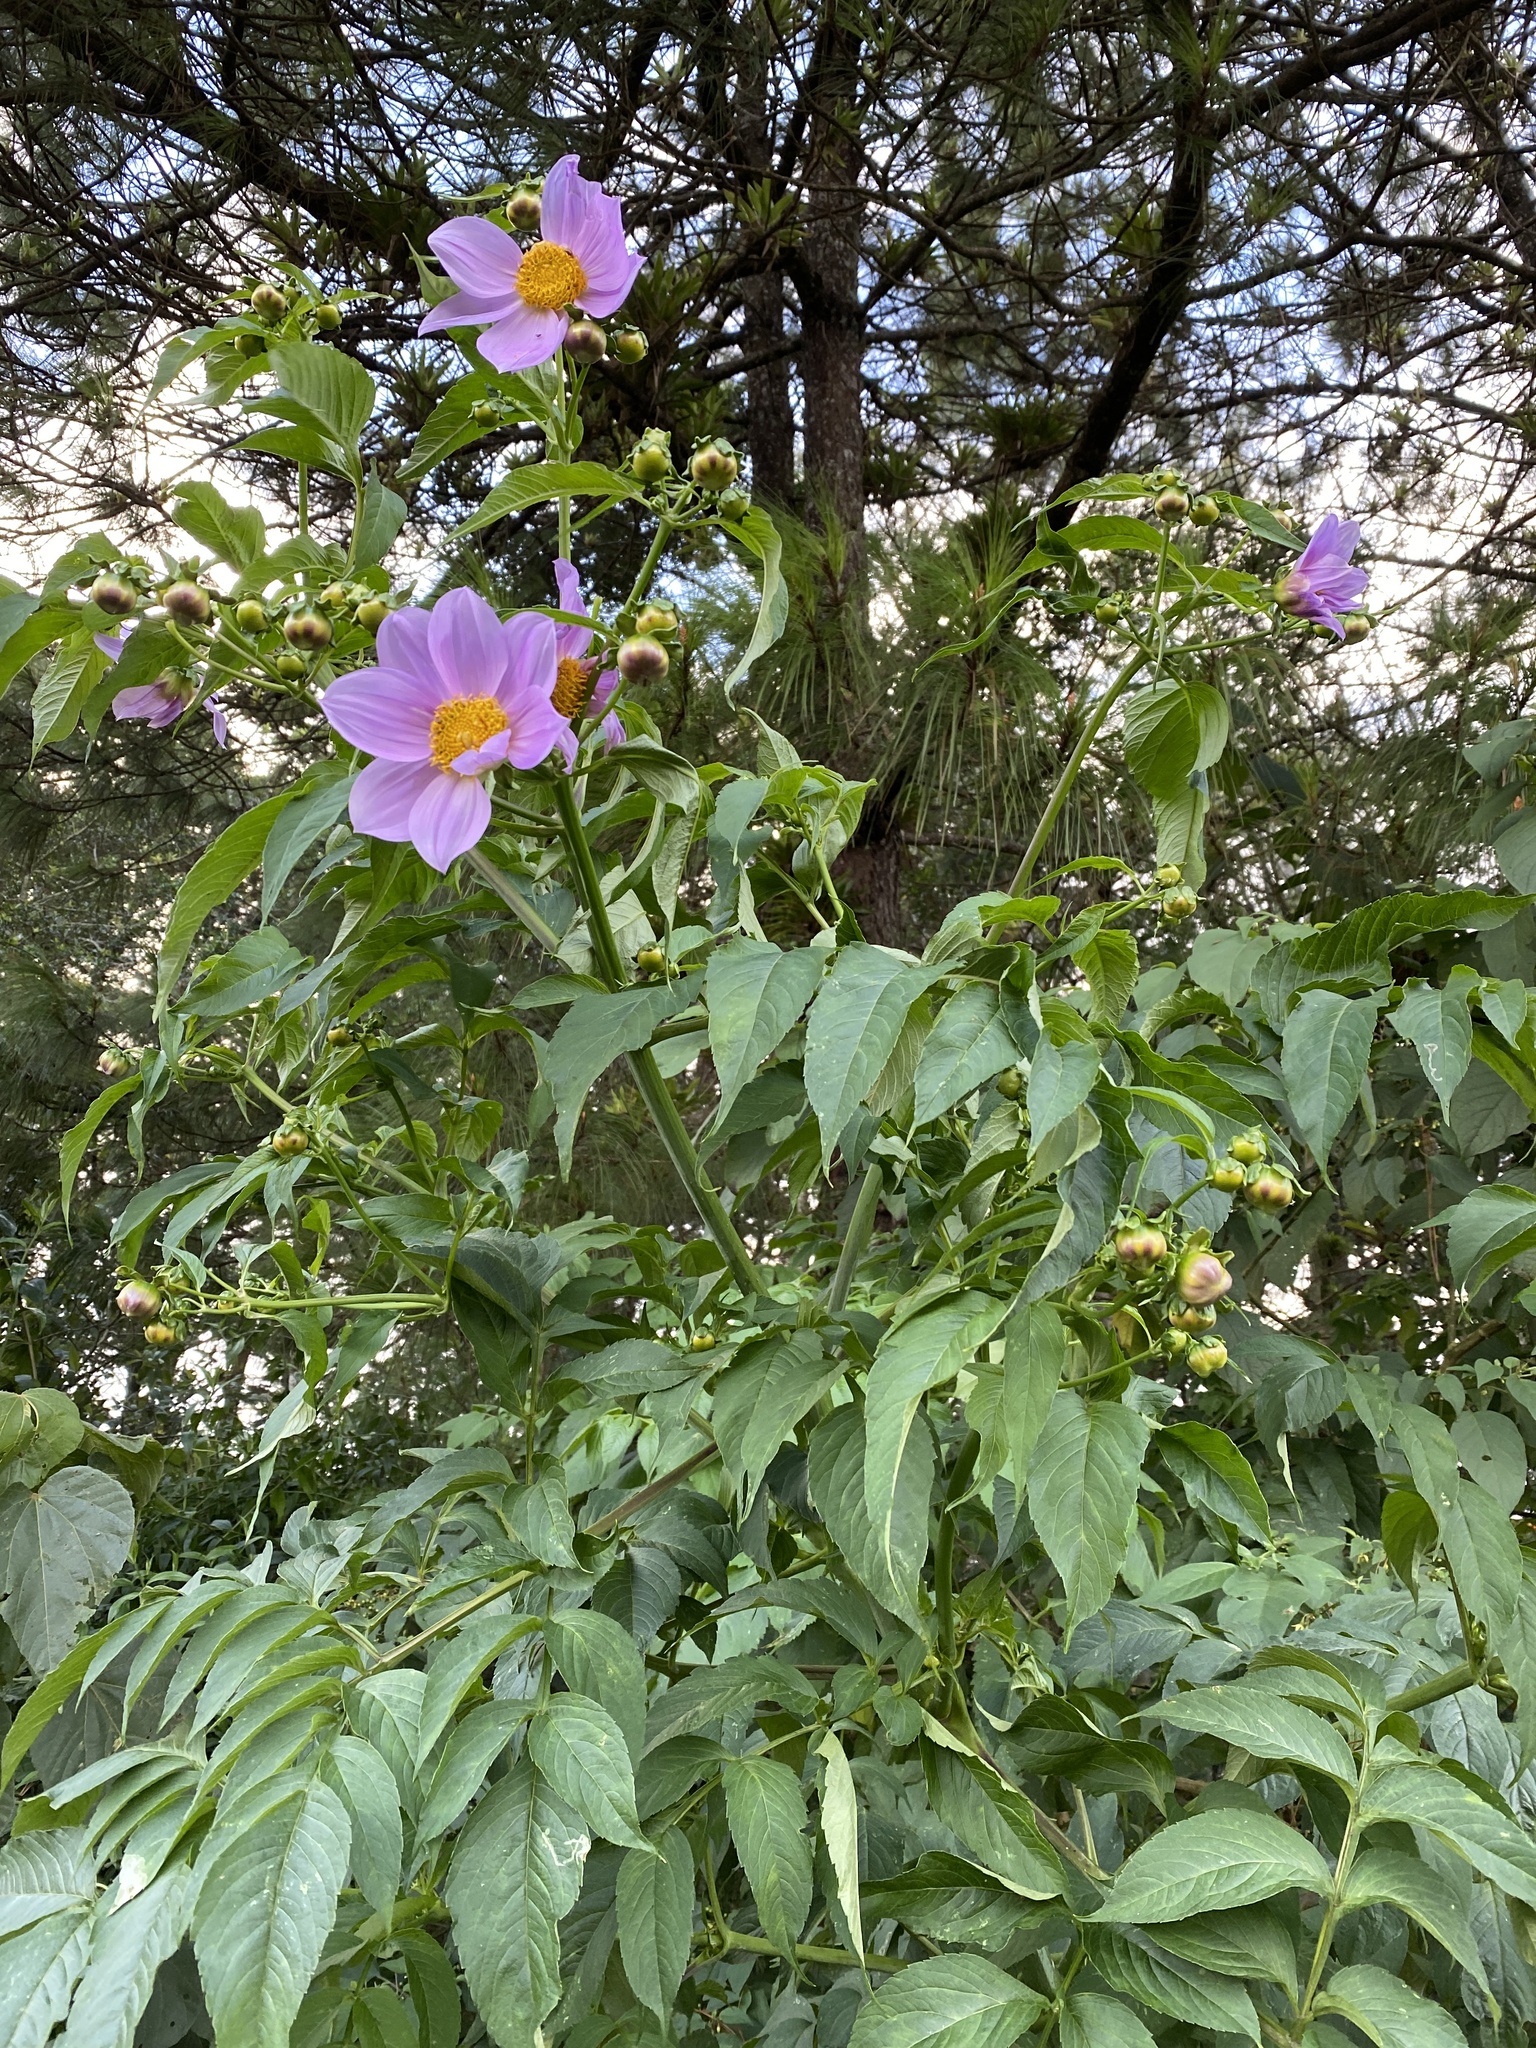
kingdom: Plantae
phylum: Tracheophyta
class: Magnoliopsida
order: Asterales
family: Asteraceae
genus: Dahlia
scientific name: Dahlia imperialis
